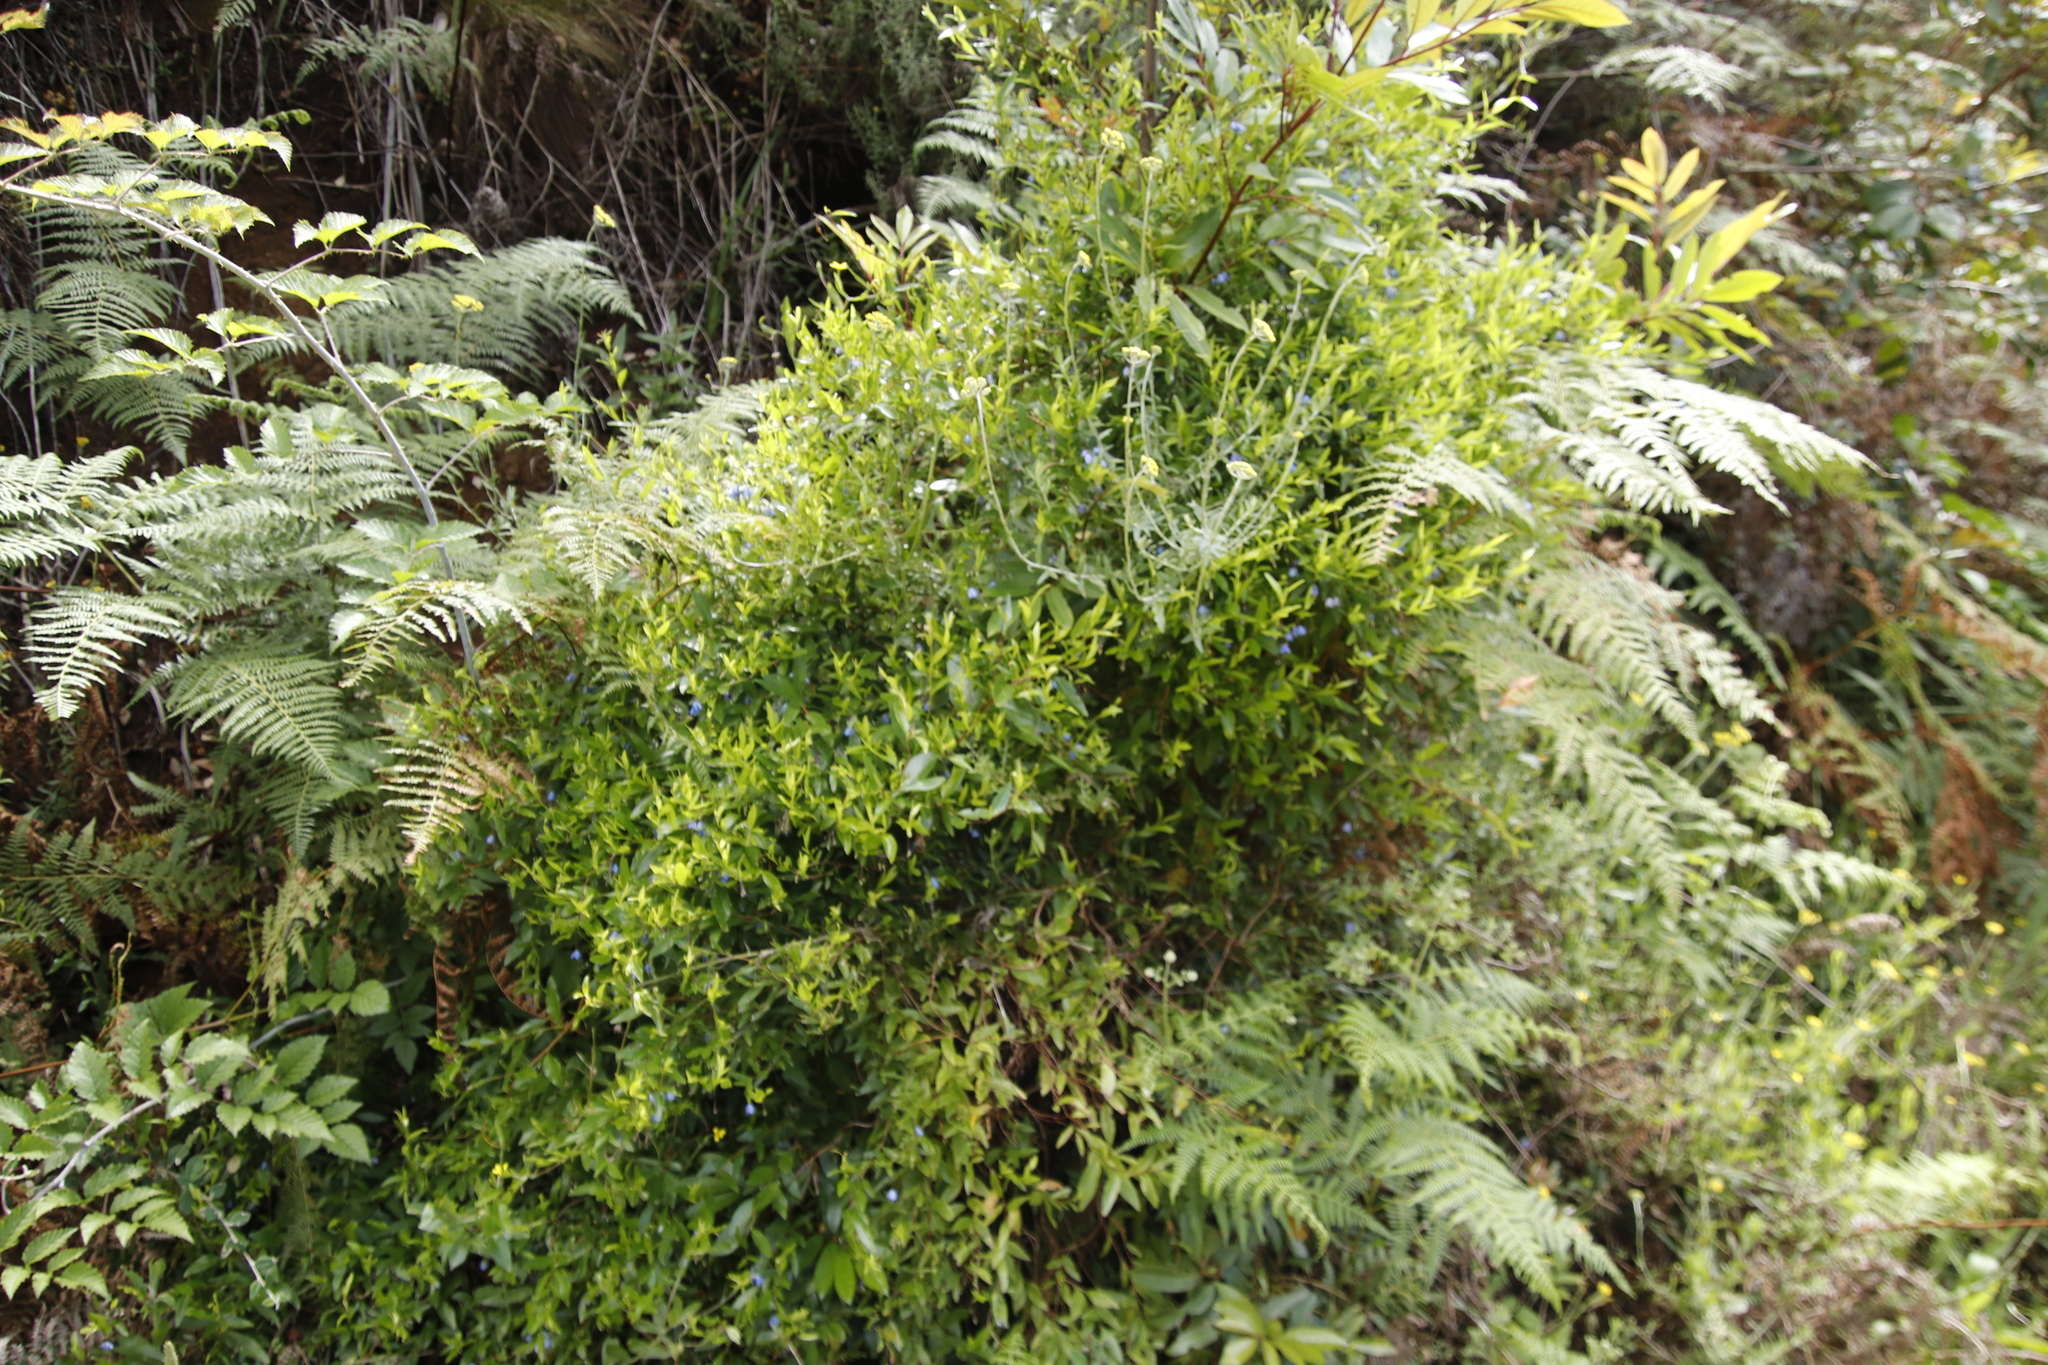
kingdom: Plantae
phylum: Tracheophyta
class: Magnoliopsida
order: Apiales
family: Pittosporaceae
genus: Billardiera
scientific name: Billardiera heterophylla
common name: Bluebell creeper
